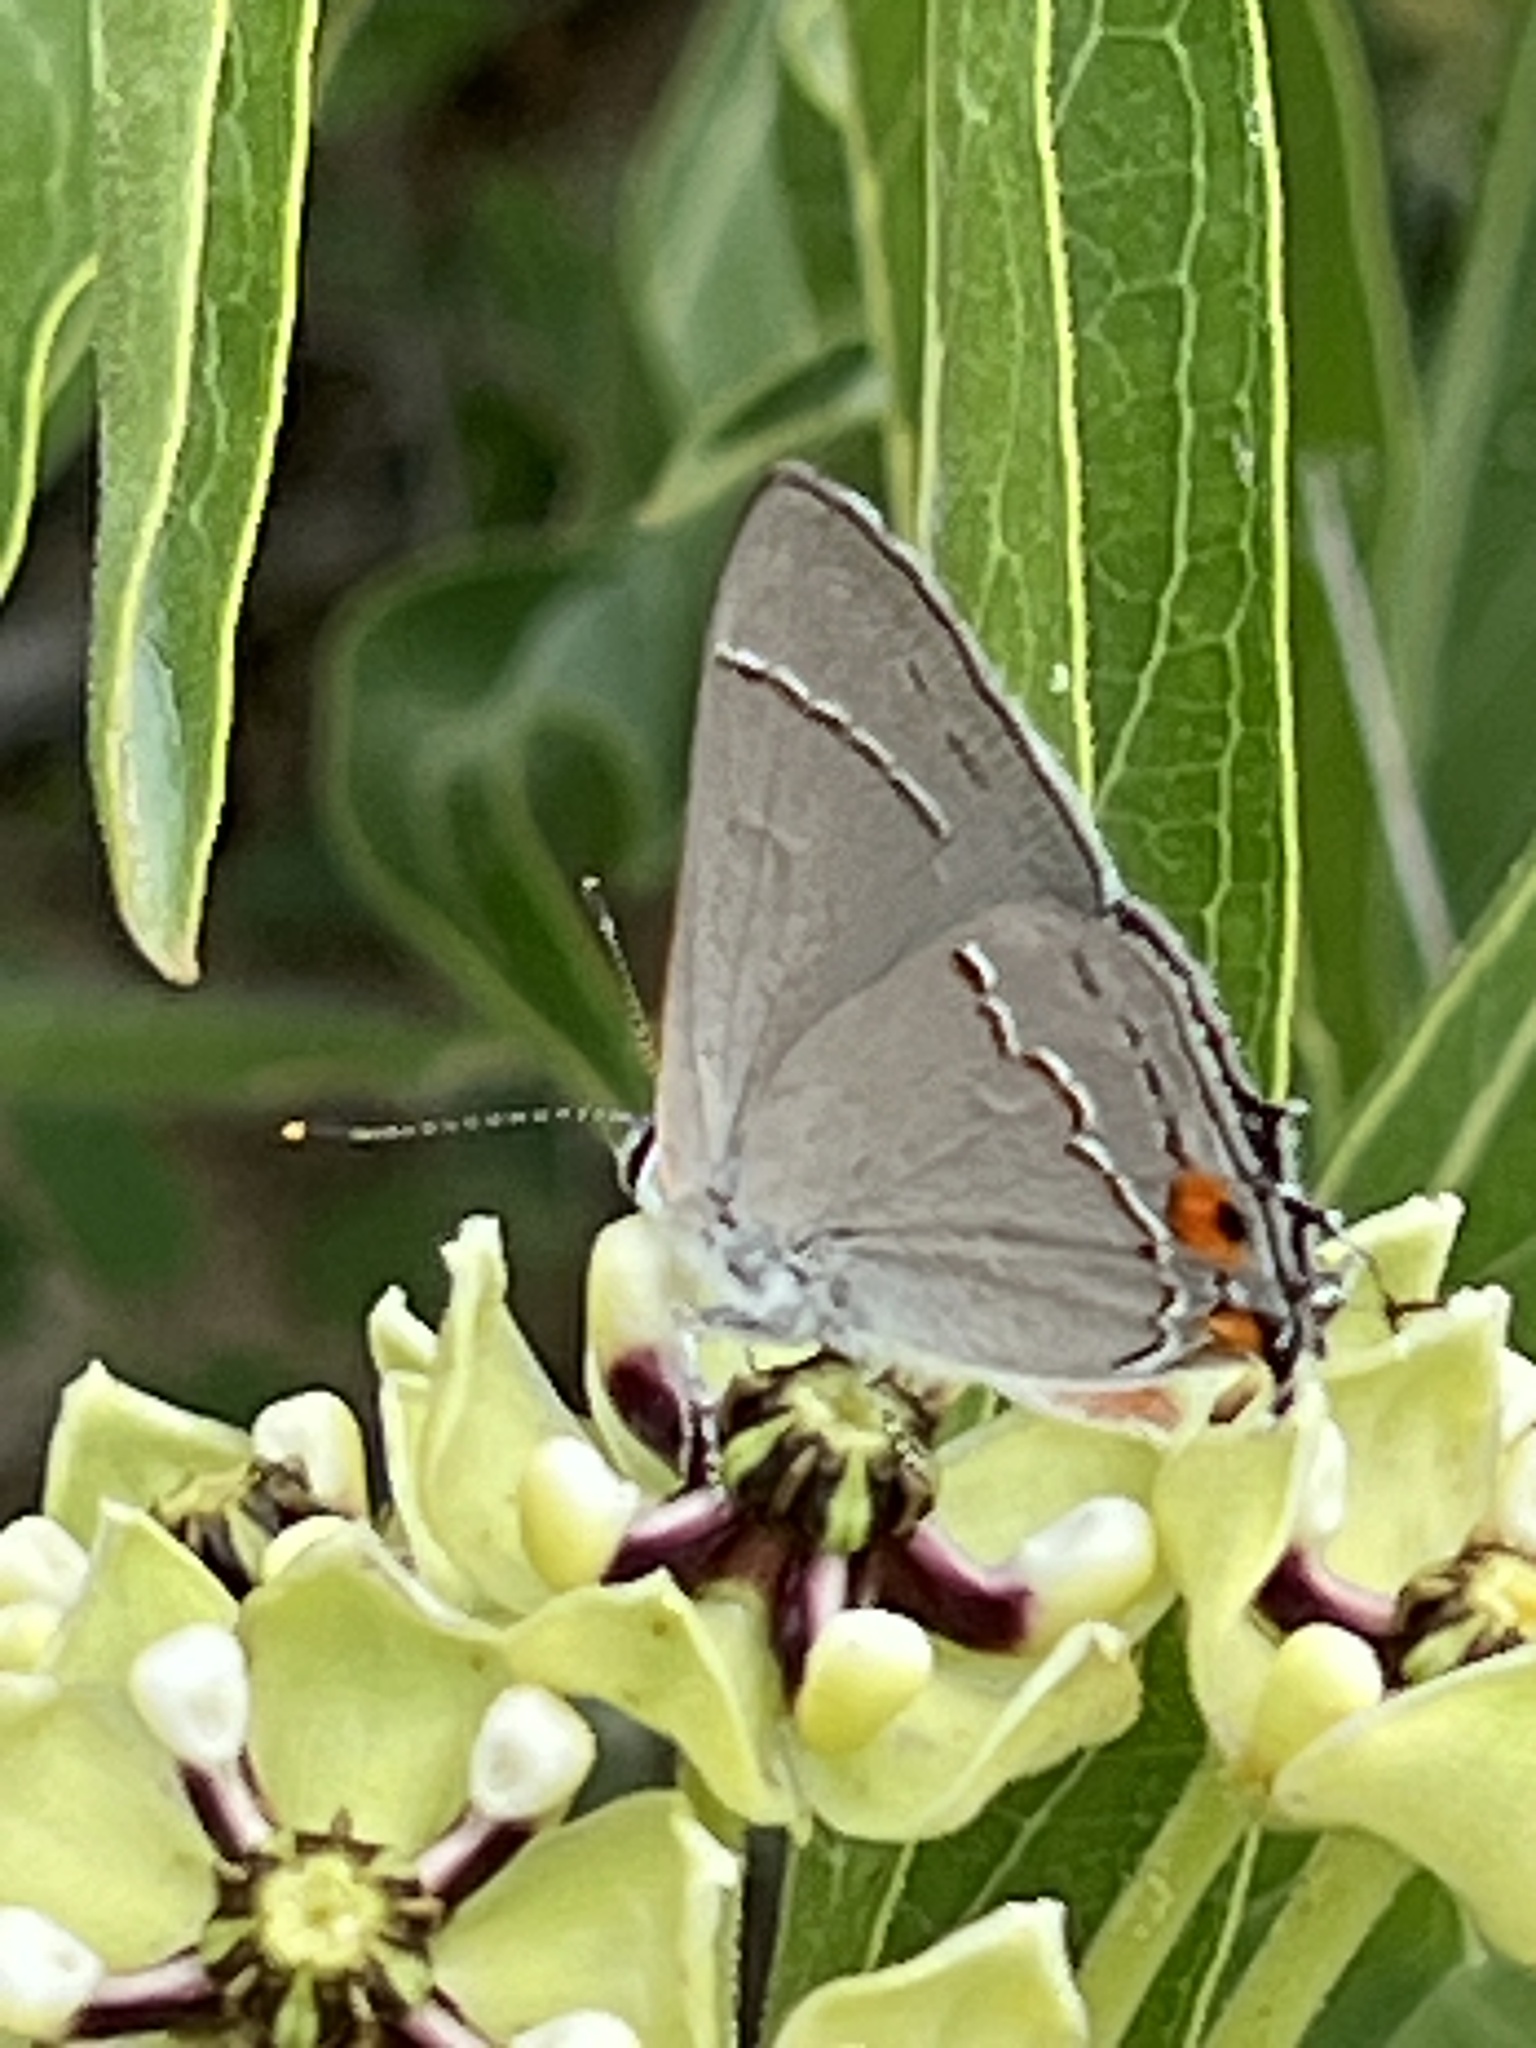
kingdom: Animalia
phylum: Arthropoda
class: Insecta
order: Lepidoptera
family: Lycaenidae
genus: Strymon
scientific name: Strymon melinus
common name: Gray hairstreak
